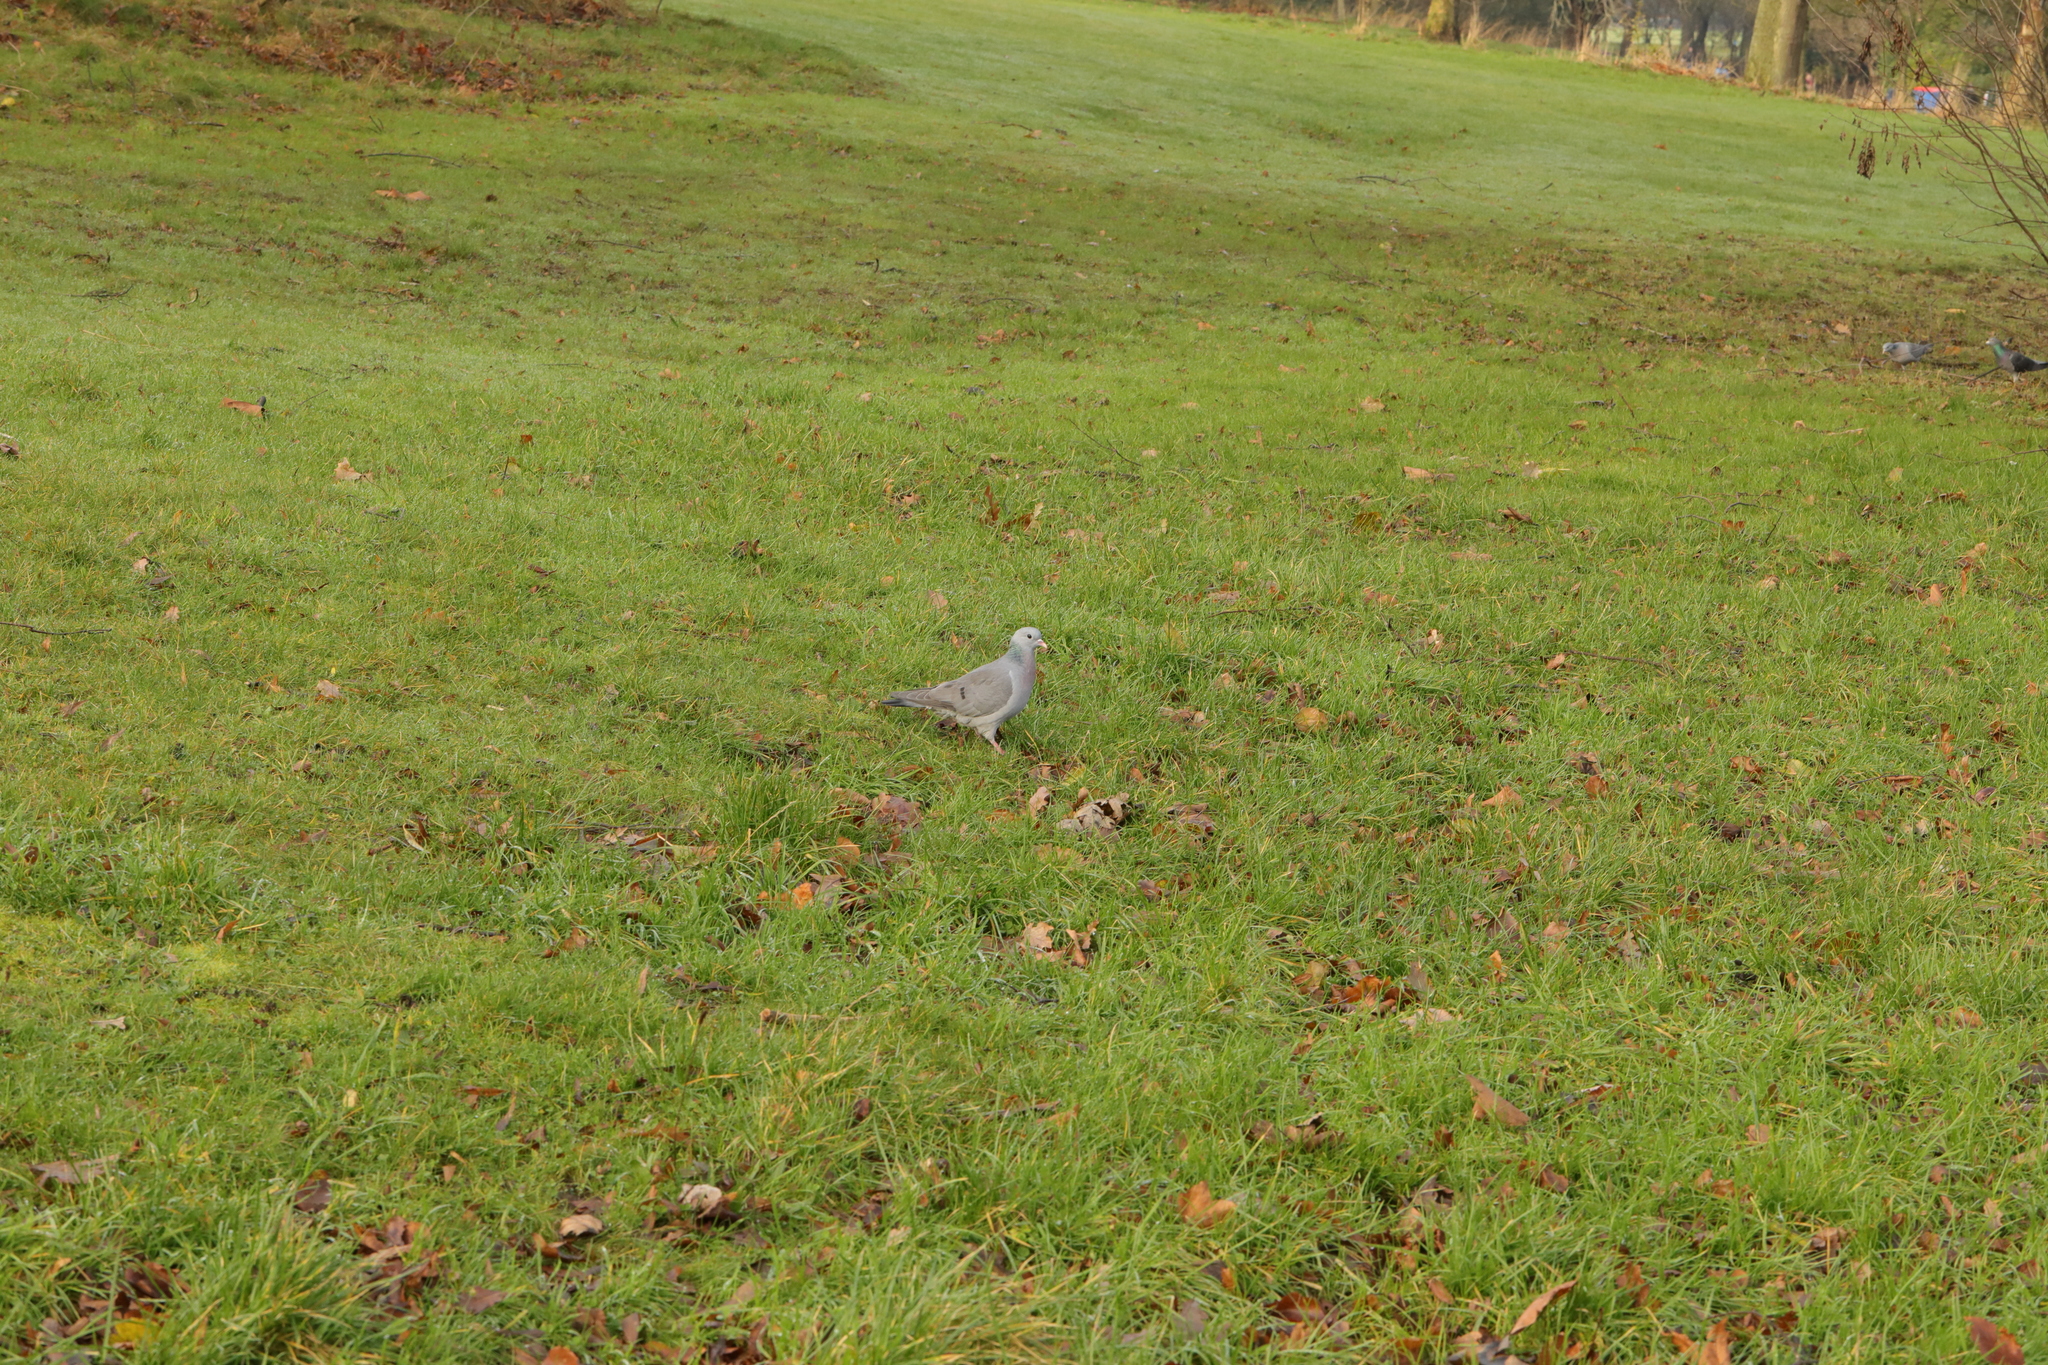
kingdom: Animalia
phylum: Chordata
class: Aves
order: Columbiformes
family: Columbidae
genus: Columba
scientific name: Columba oenas
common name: Stock dove
